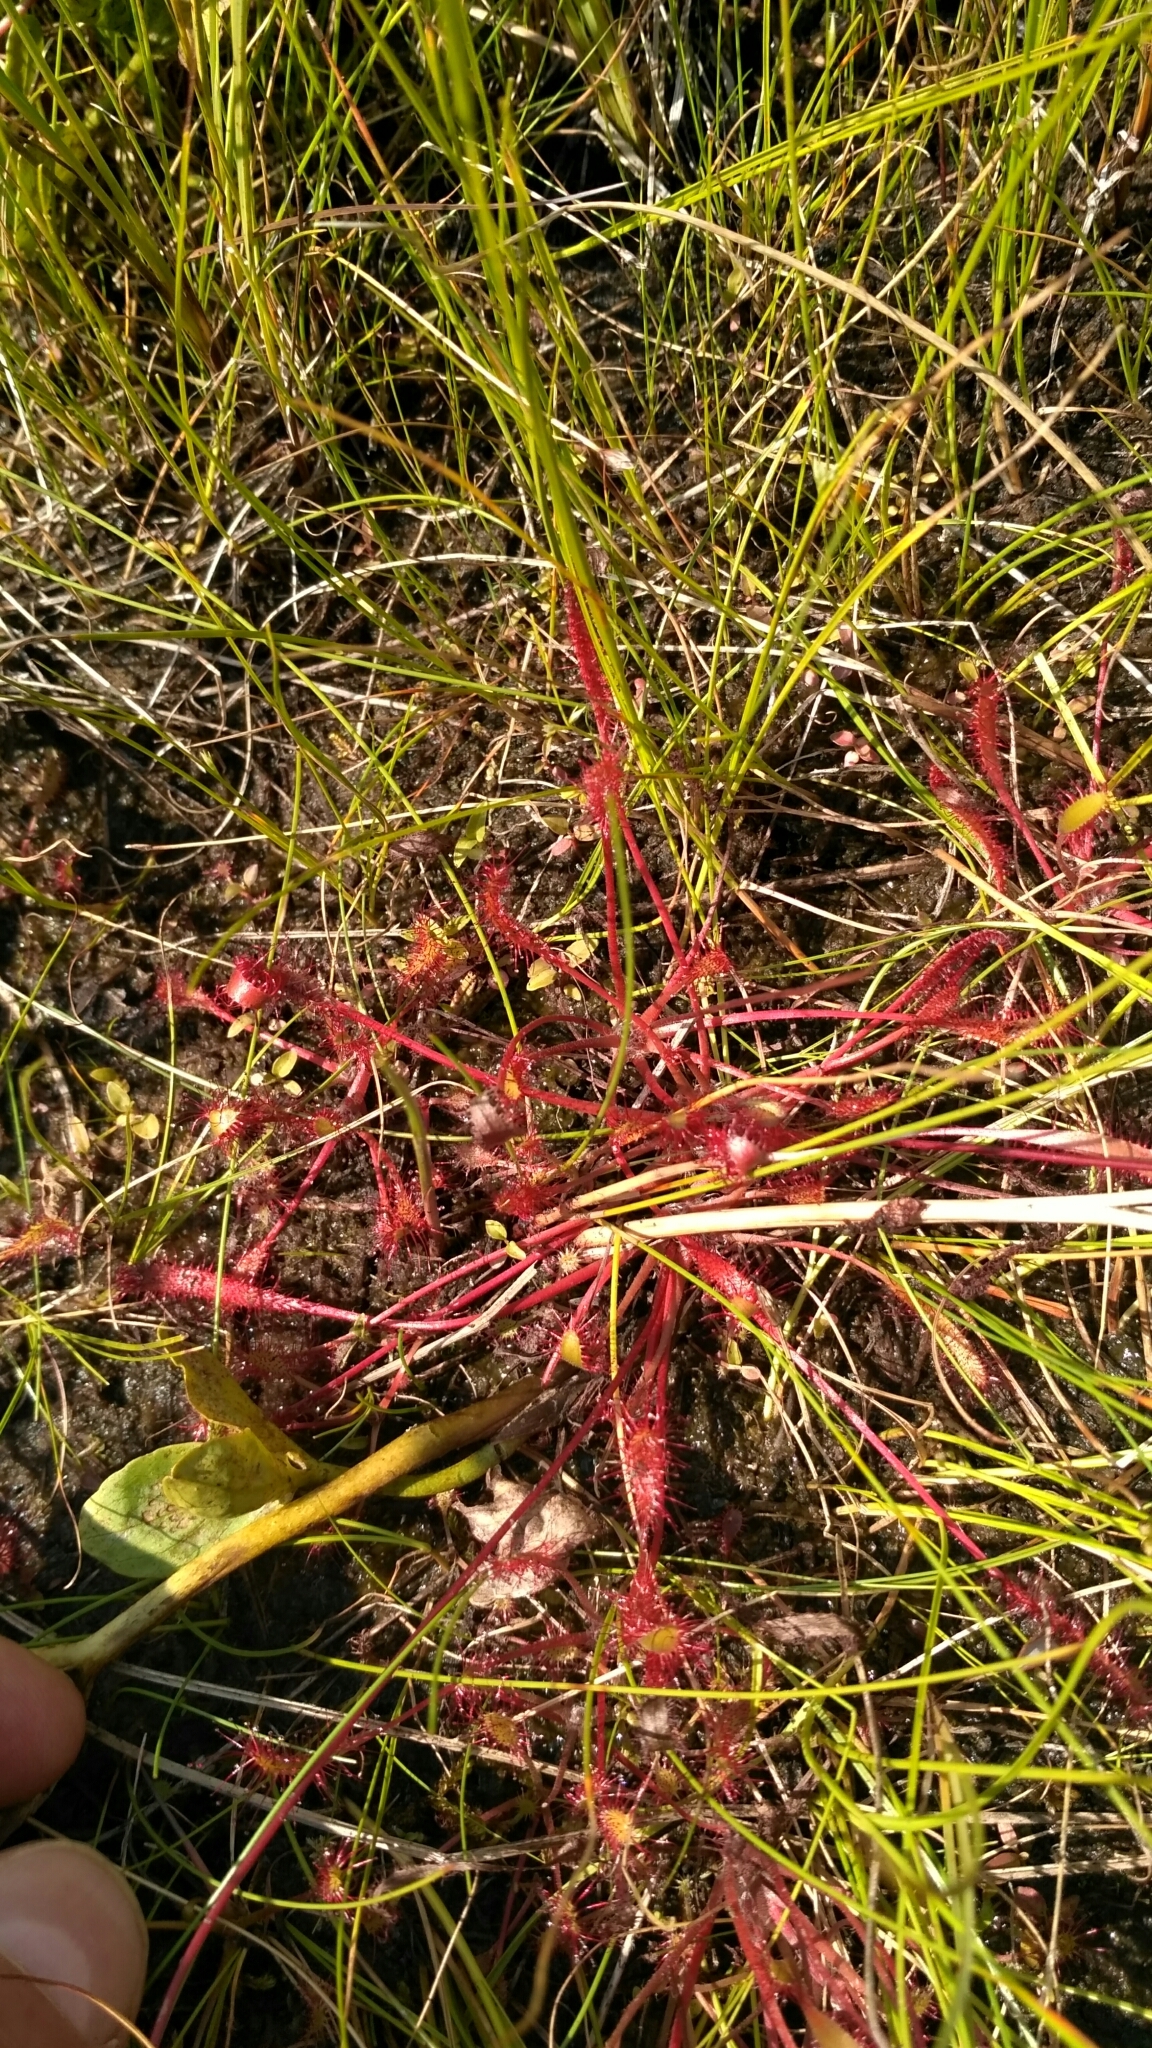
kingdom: Plantae
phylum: Tracheophyta
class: Magnoliopsida
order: Caryophyllales
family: Droseraceae
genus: Drosera
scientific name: Drosera anglica
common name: Great sundew
